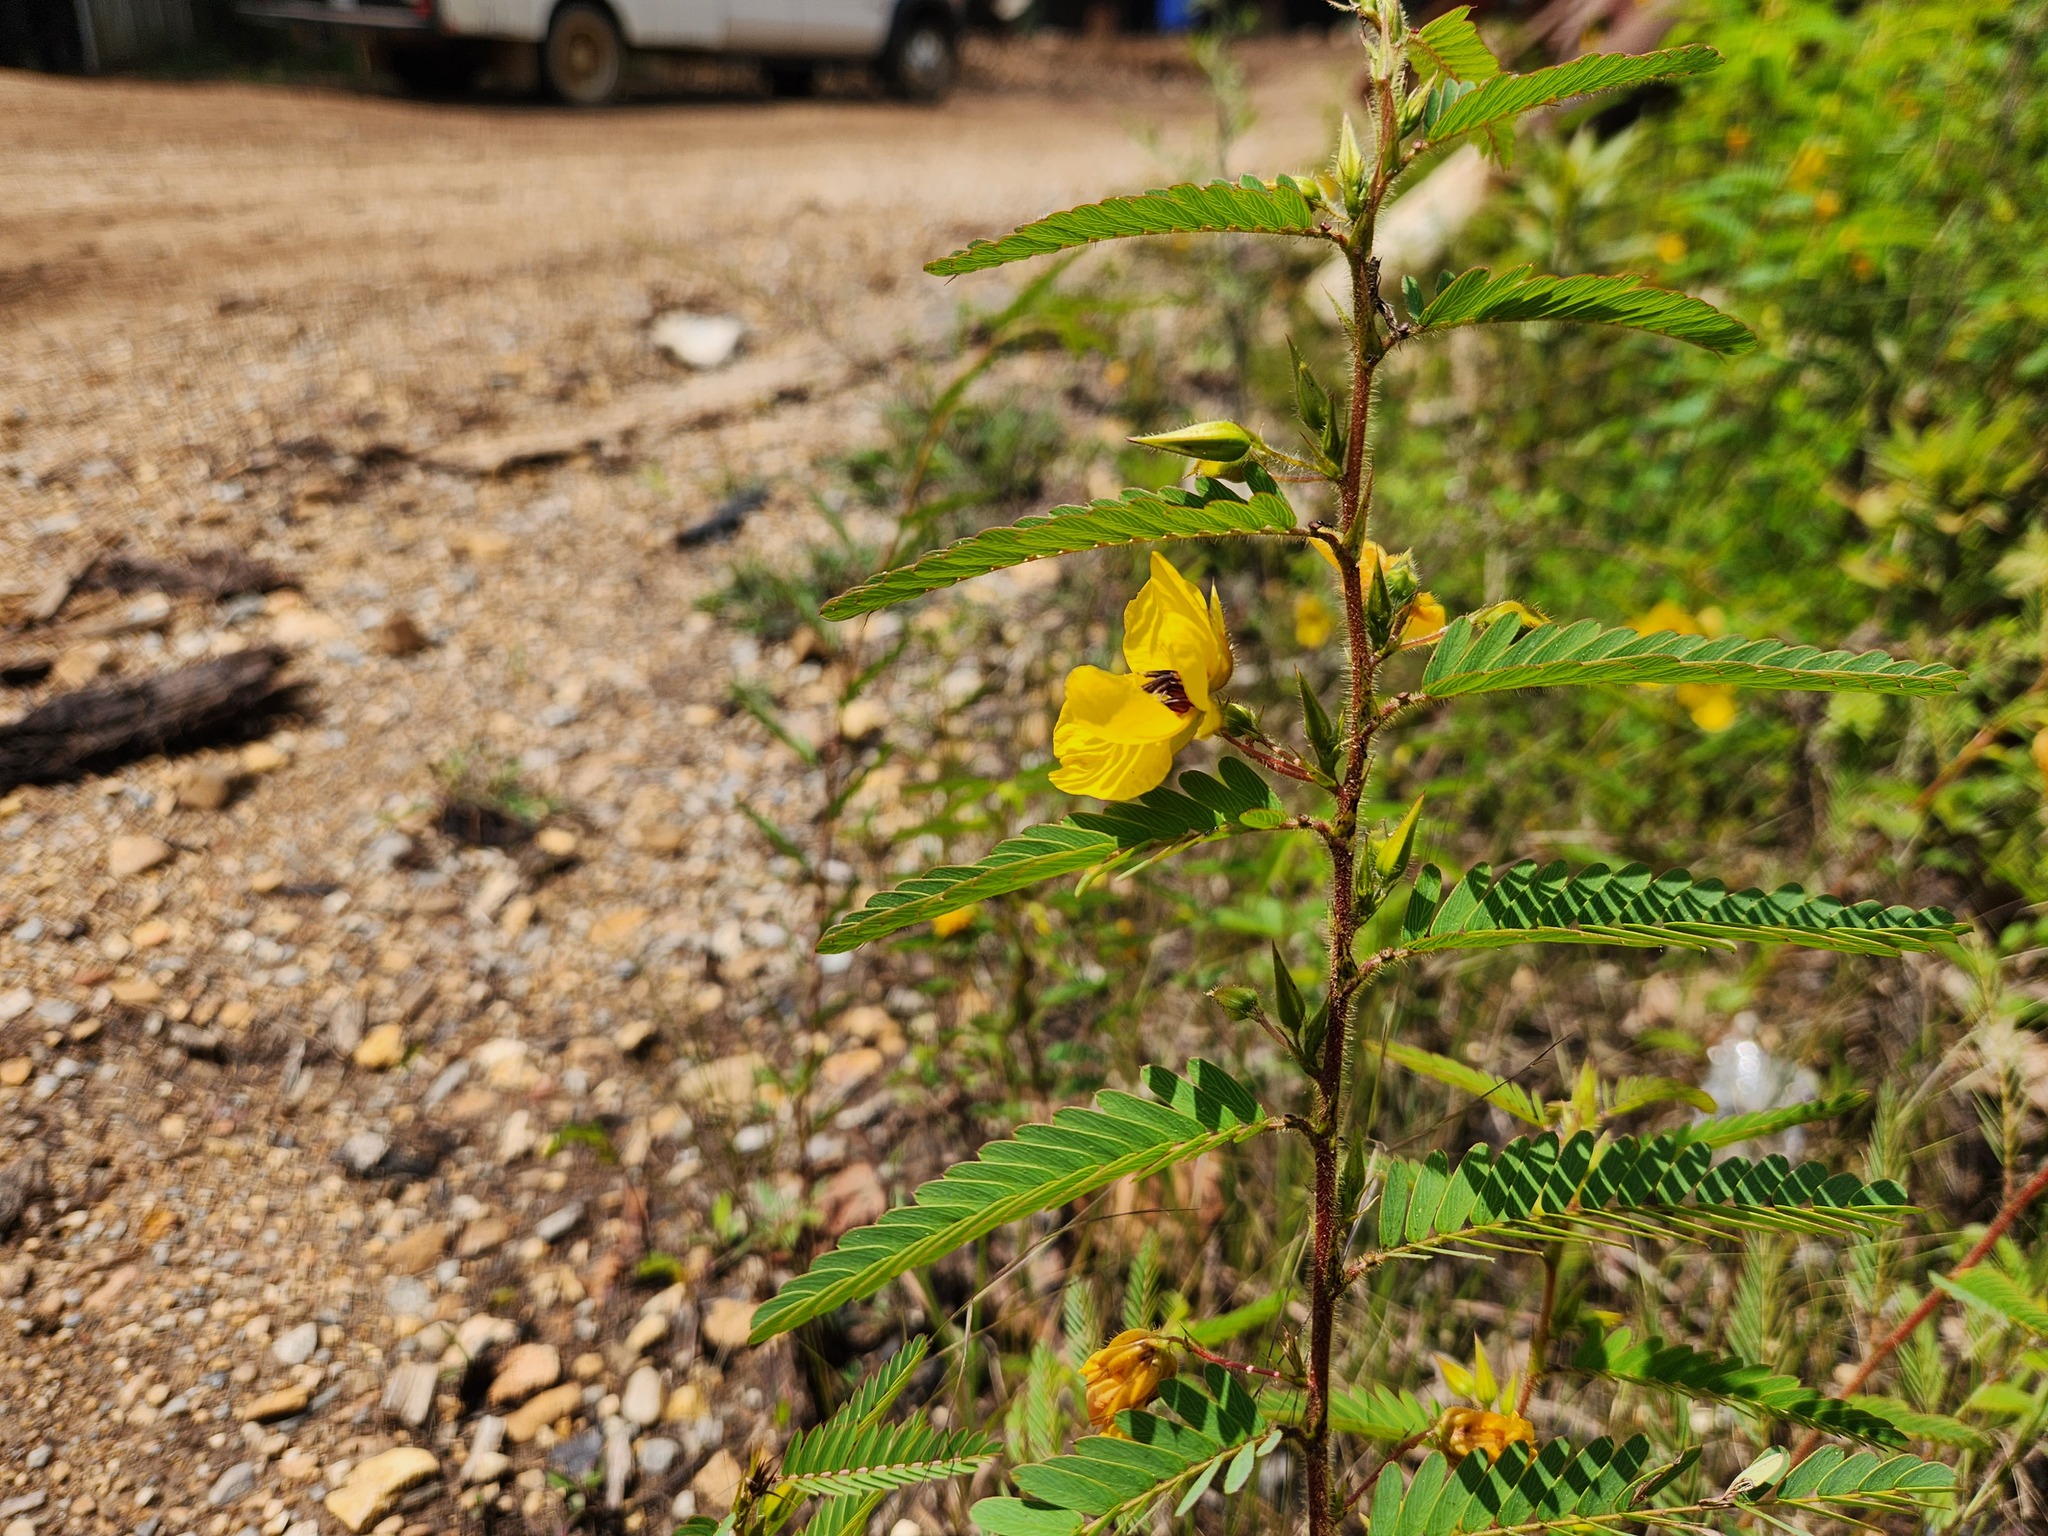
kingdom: Plantae
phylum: Tracheophyta
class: Magnoliopsida
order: Fabales
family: Fabaceae
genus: Chamaecrista
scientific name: Chamaecrista fasciculata
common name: Golden cassia
